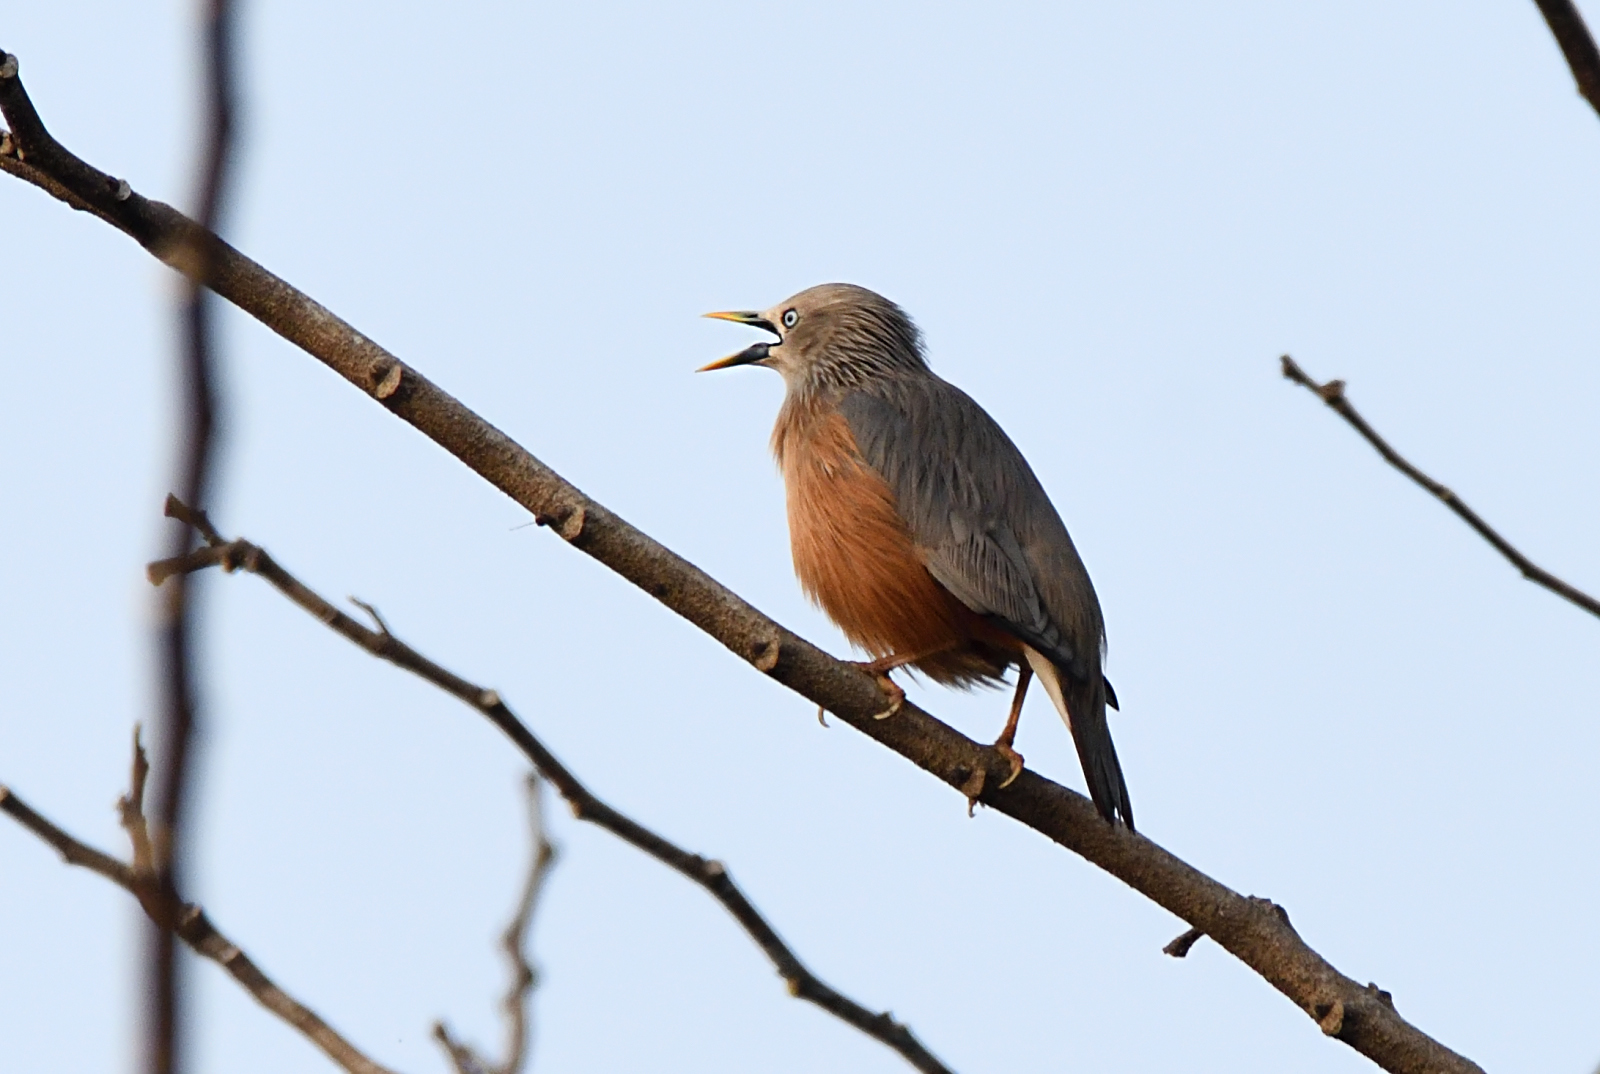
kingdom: Animalia
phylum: Chordata
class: Aves
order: Passeriformes
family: Sturnidae
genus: Sturnia
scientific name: Sturnia malabarica
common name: Chestnut-tailed starling
